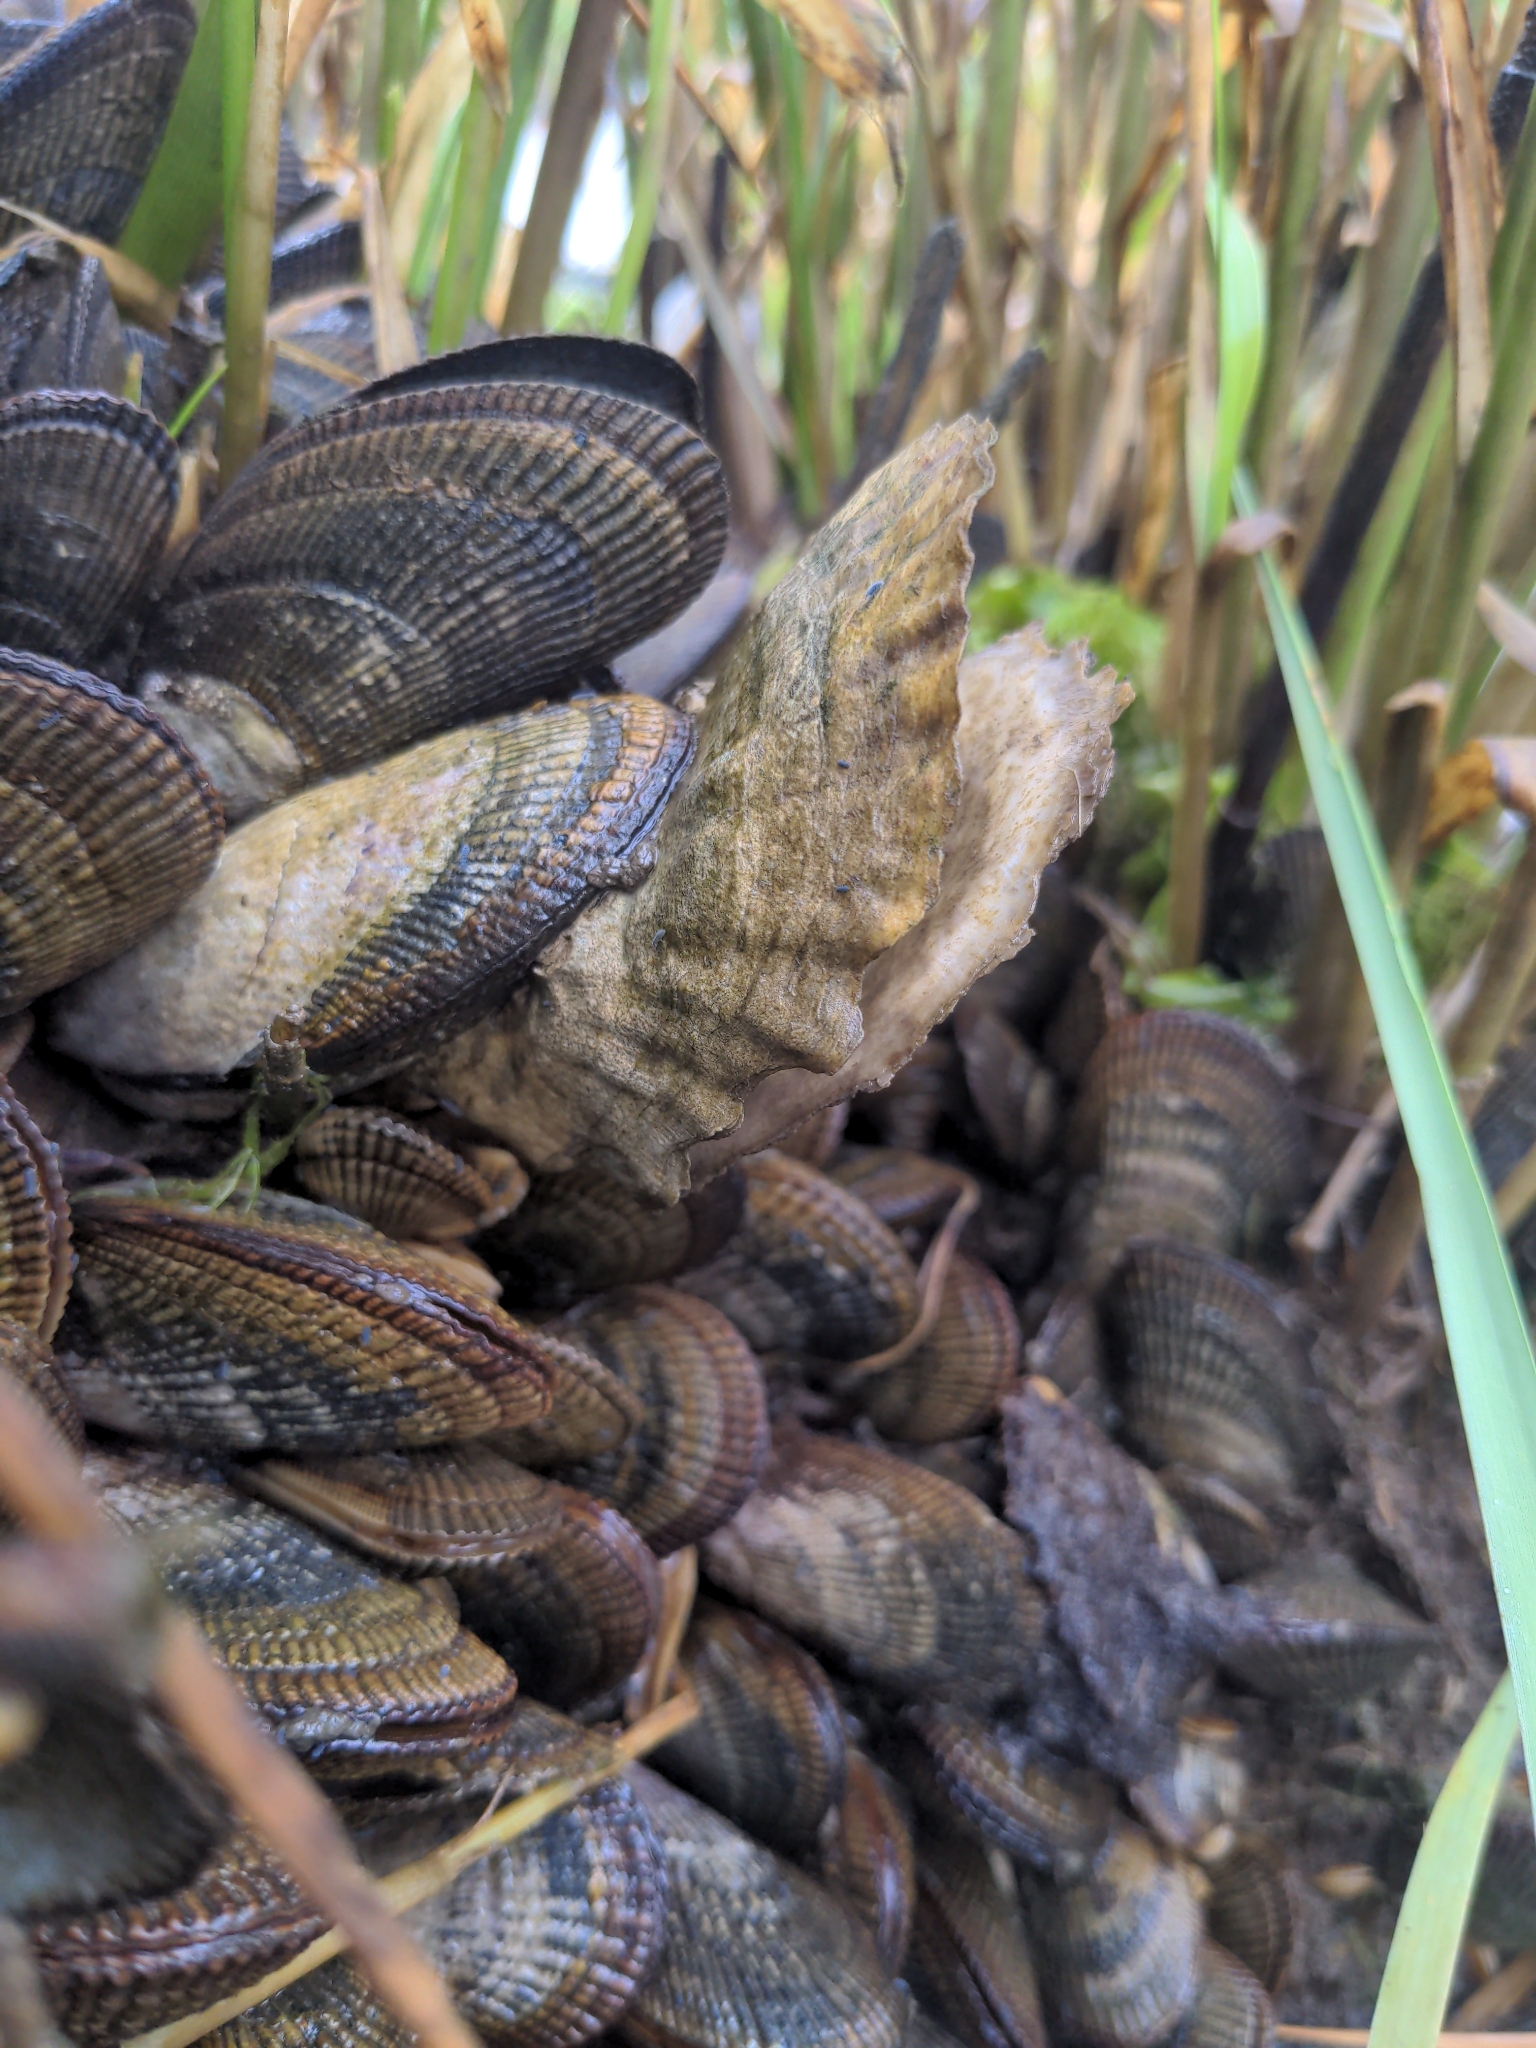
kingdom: Animalia
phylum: Mollusca
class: Bivalvia
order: Mytilida
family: Mytilidae
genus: Geukensia
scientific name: Geukensia demissa
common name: Ribbed mussel
